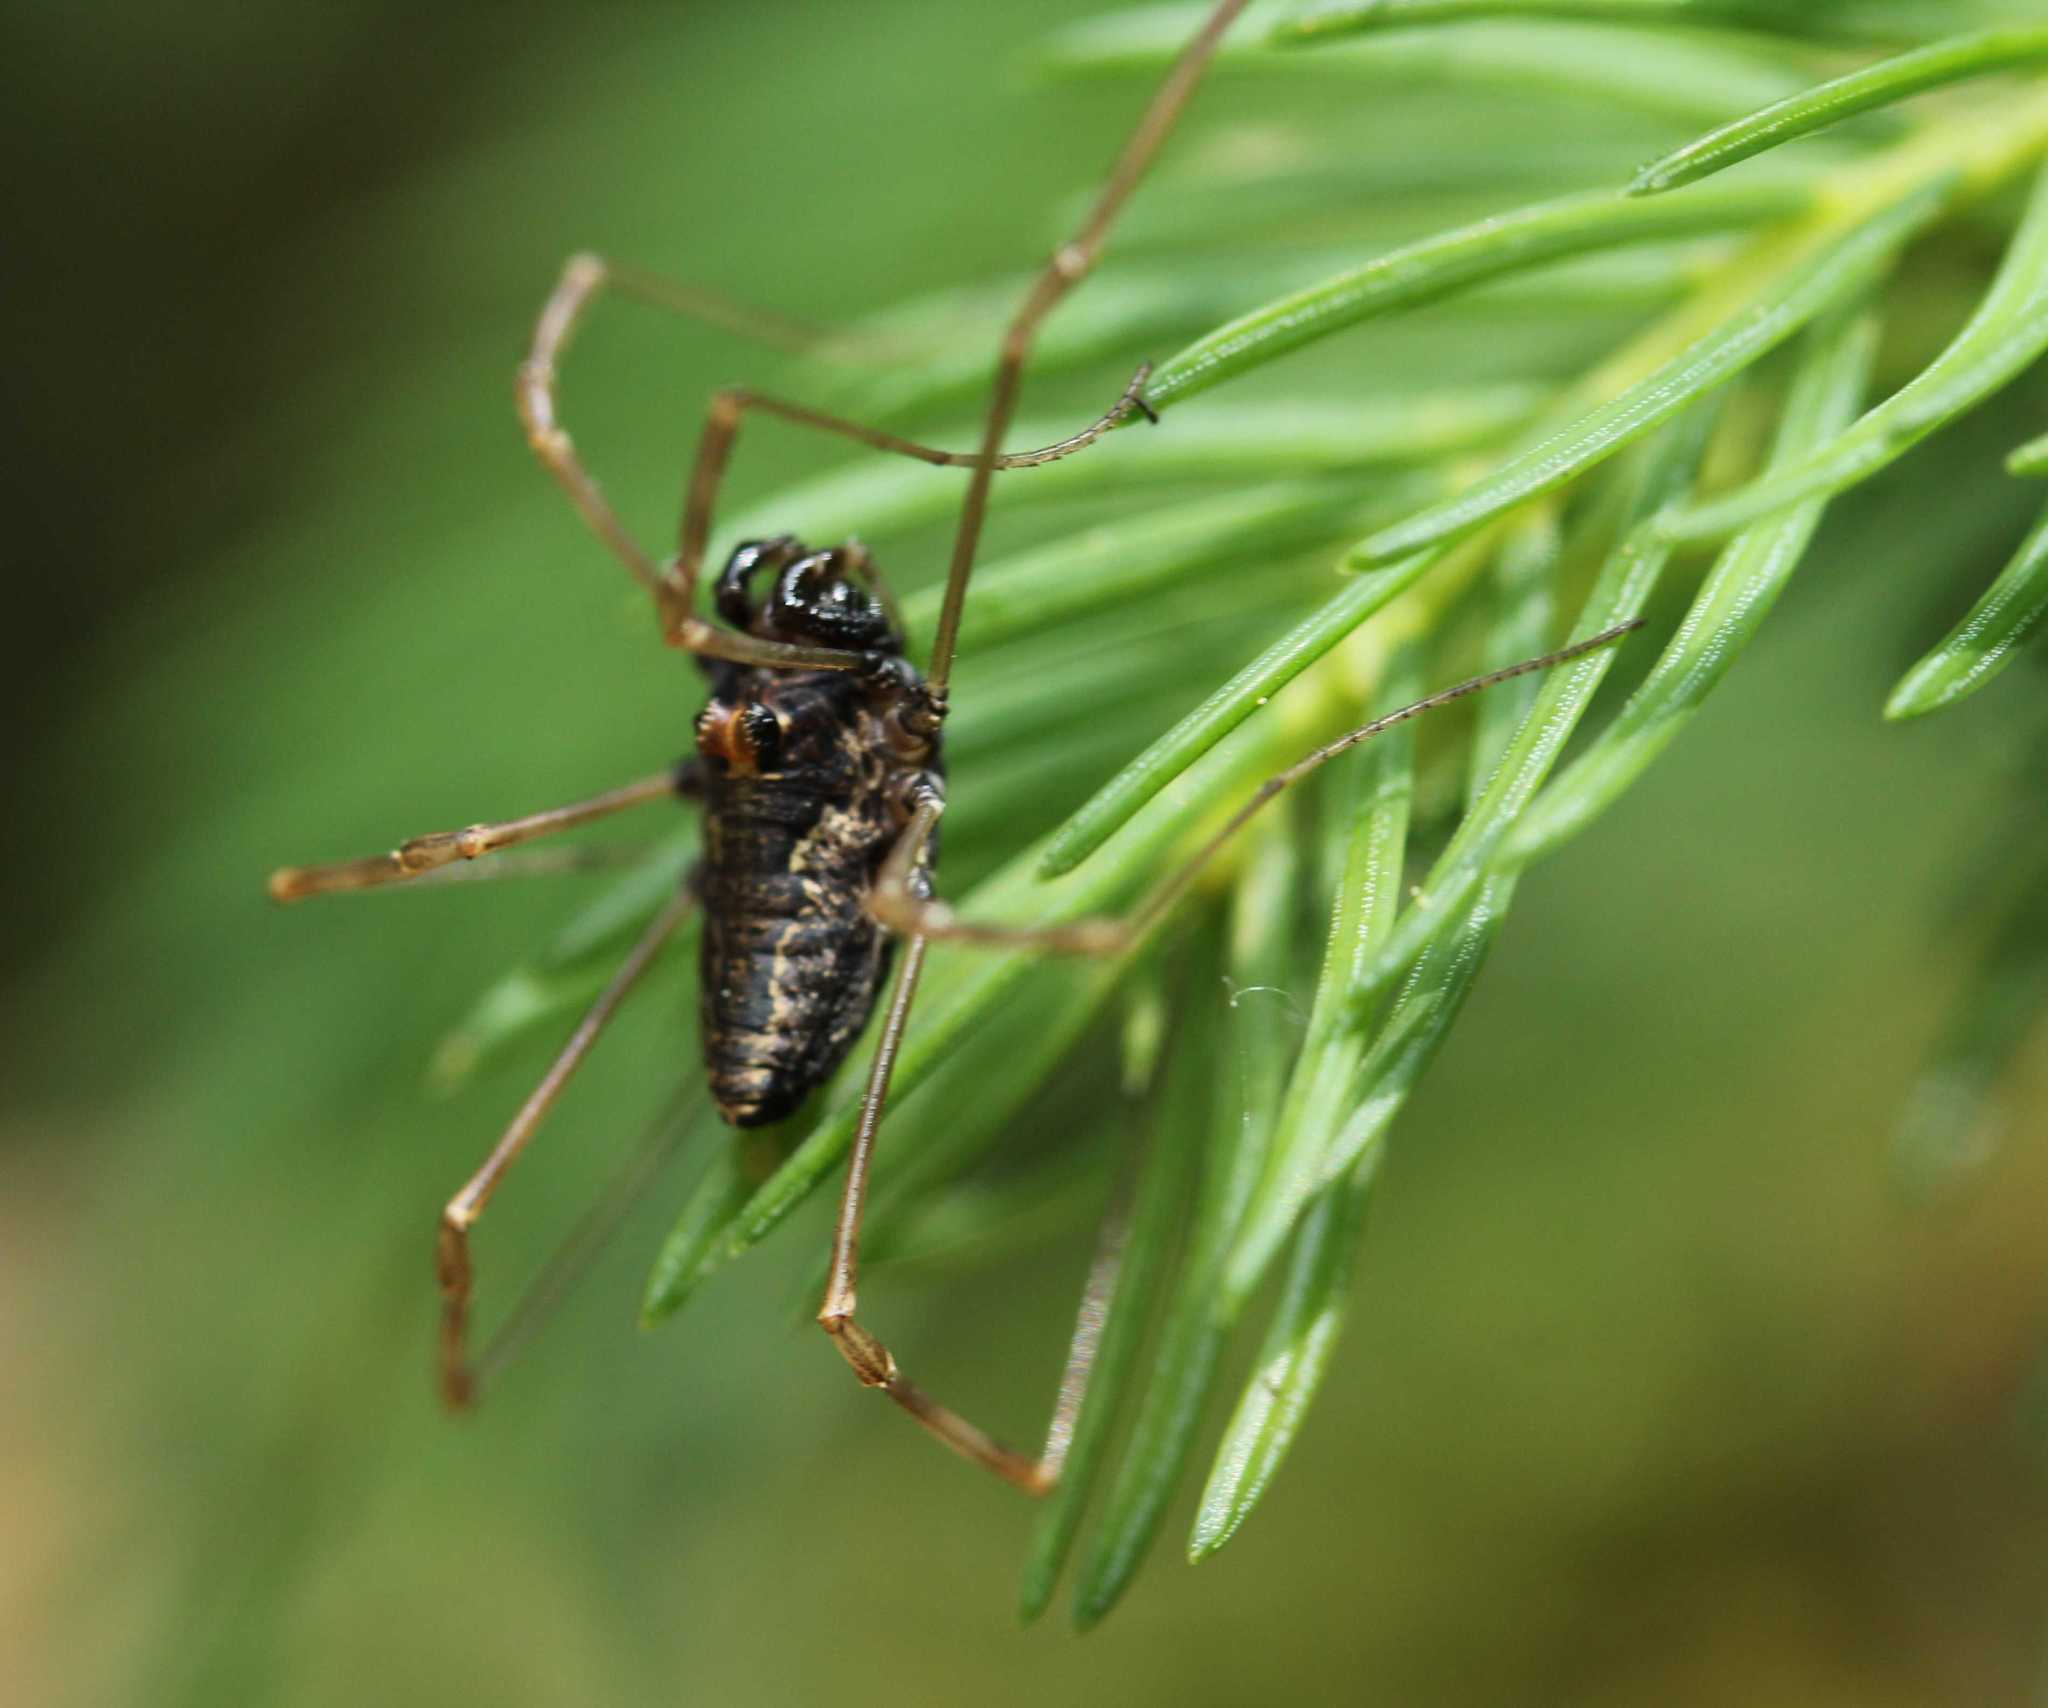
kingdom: Animalia
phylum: Arthropoda
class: Arachnida
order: Opiliones
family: Phalangiidae
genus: Platybunus
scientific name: Platybunus pinetorum
